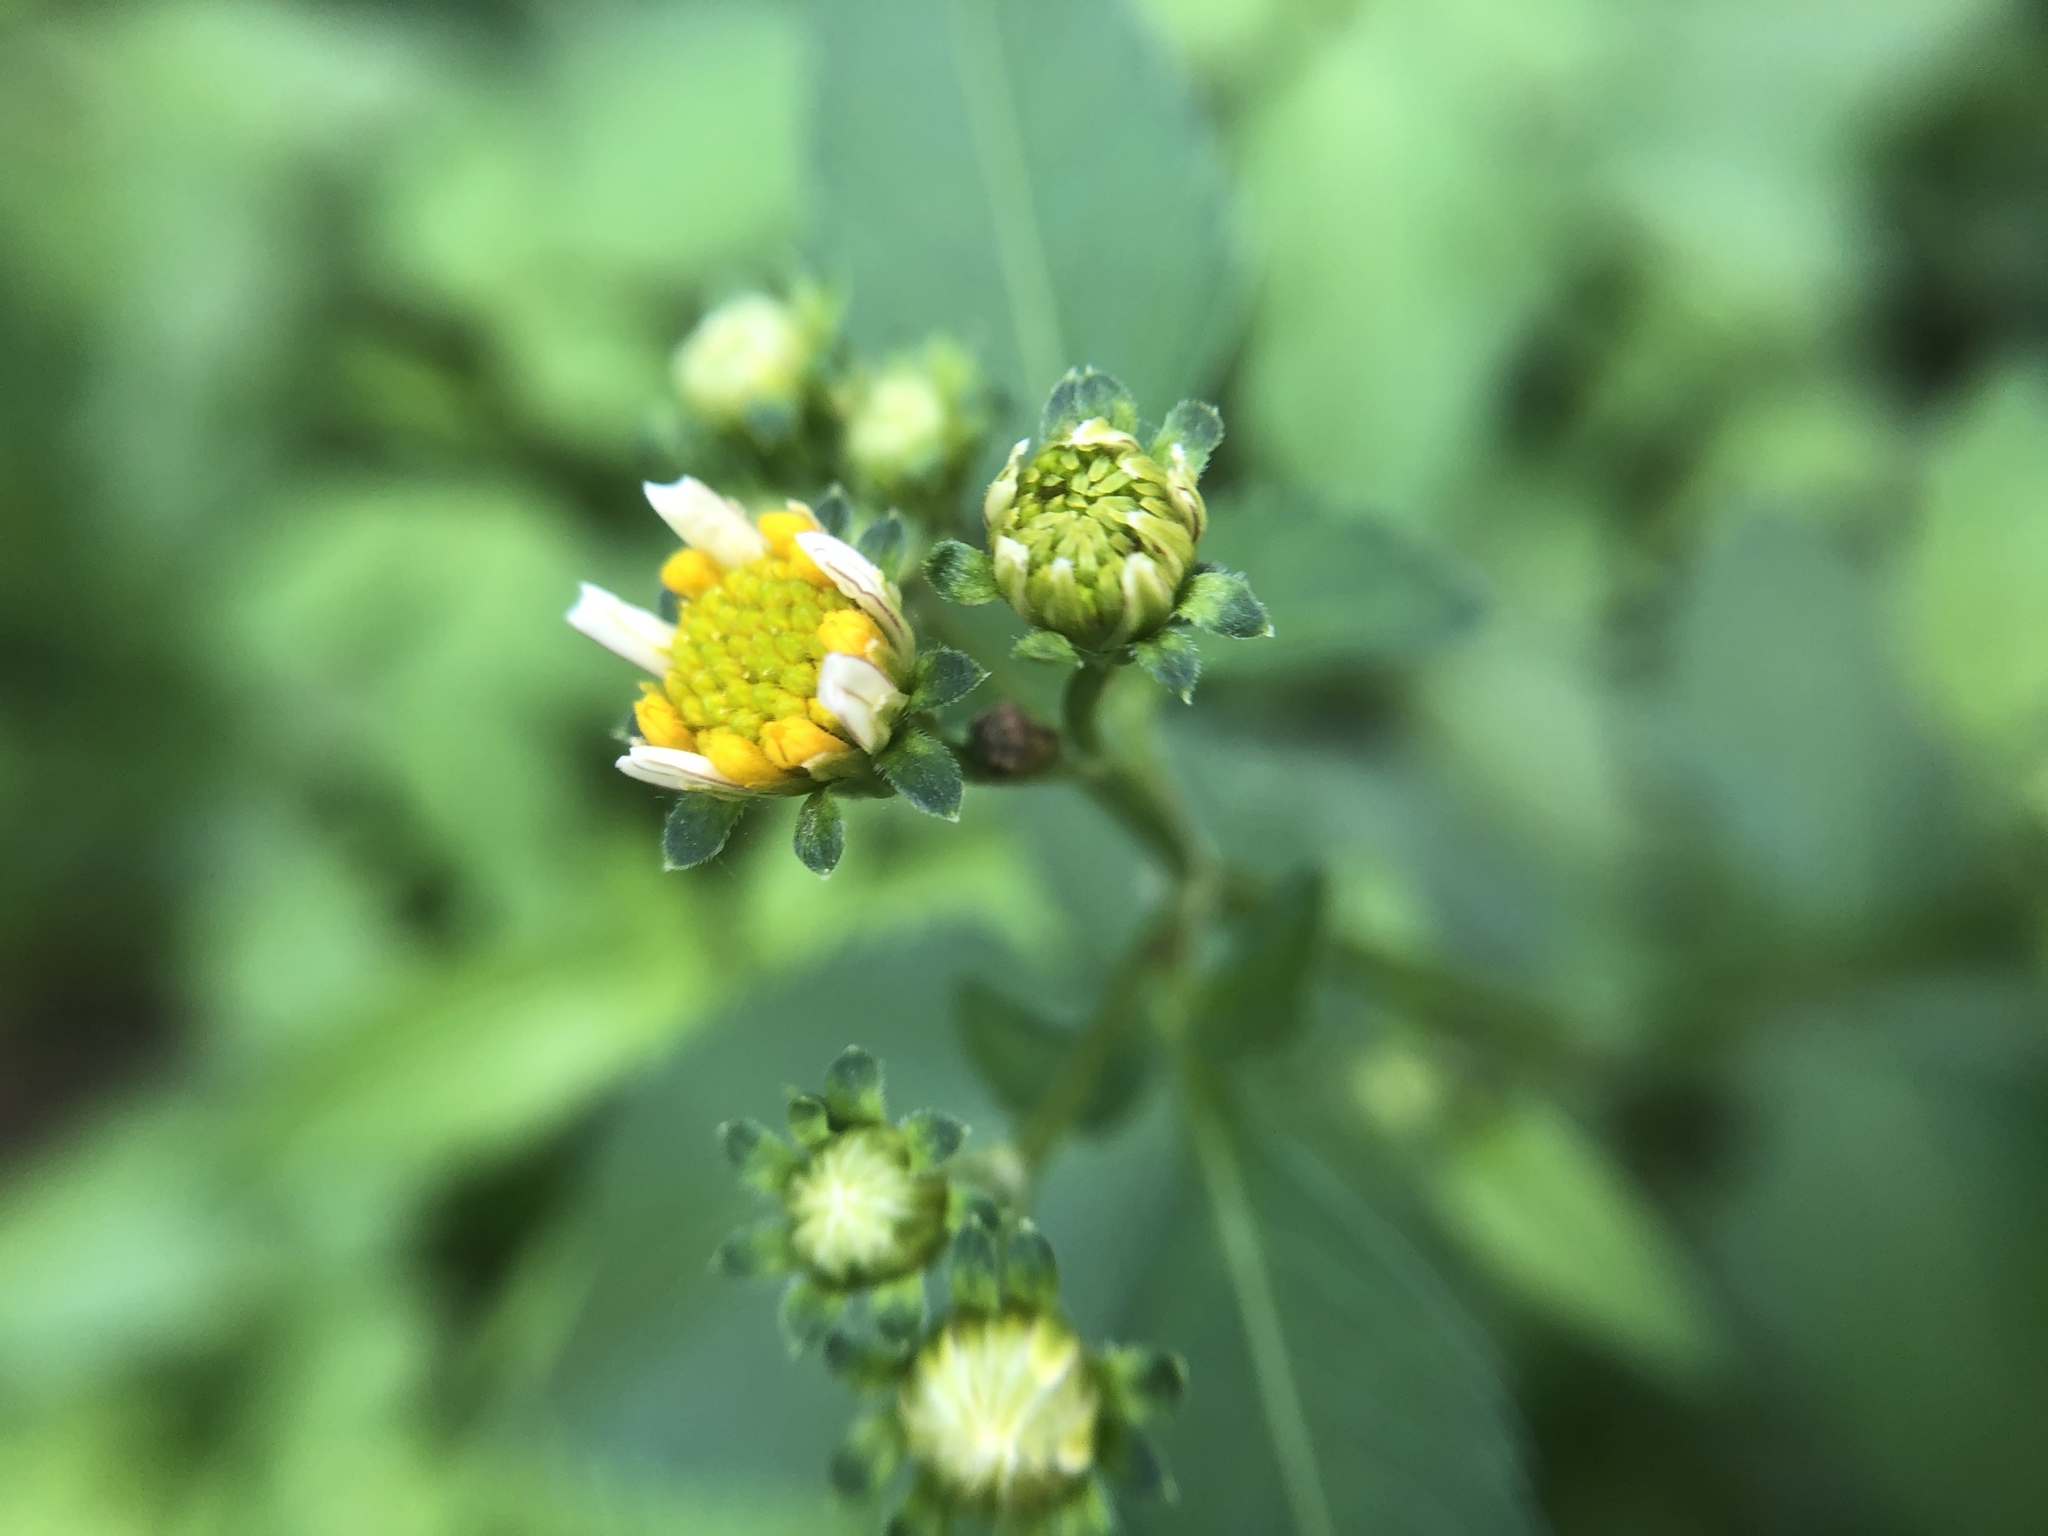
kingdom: Plantae
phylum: Tracheophyta
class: Magnoliopsida
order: Asterales
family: Asteraceae
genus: Bidens
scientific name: Bidens alba
